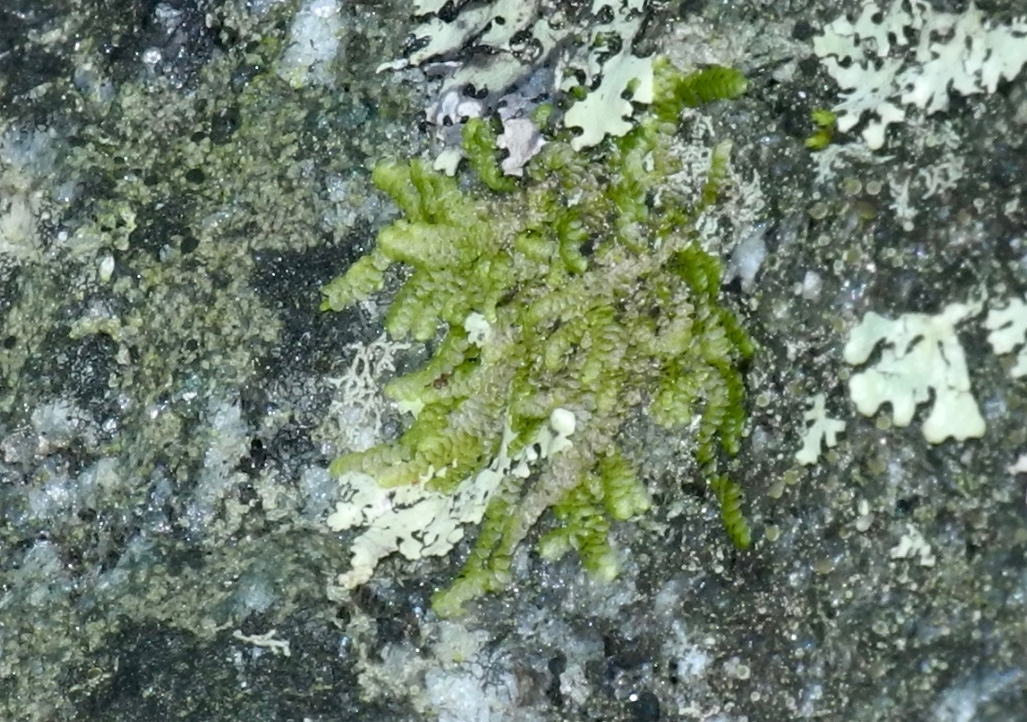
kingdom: Plantae
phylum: Marchantiophyta
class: Jungermanniopsida
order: Porellales
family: Radulaceae
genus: Radula
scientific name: Radula complanata
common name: Flat-leaved scalewort
